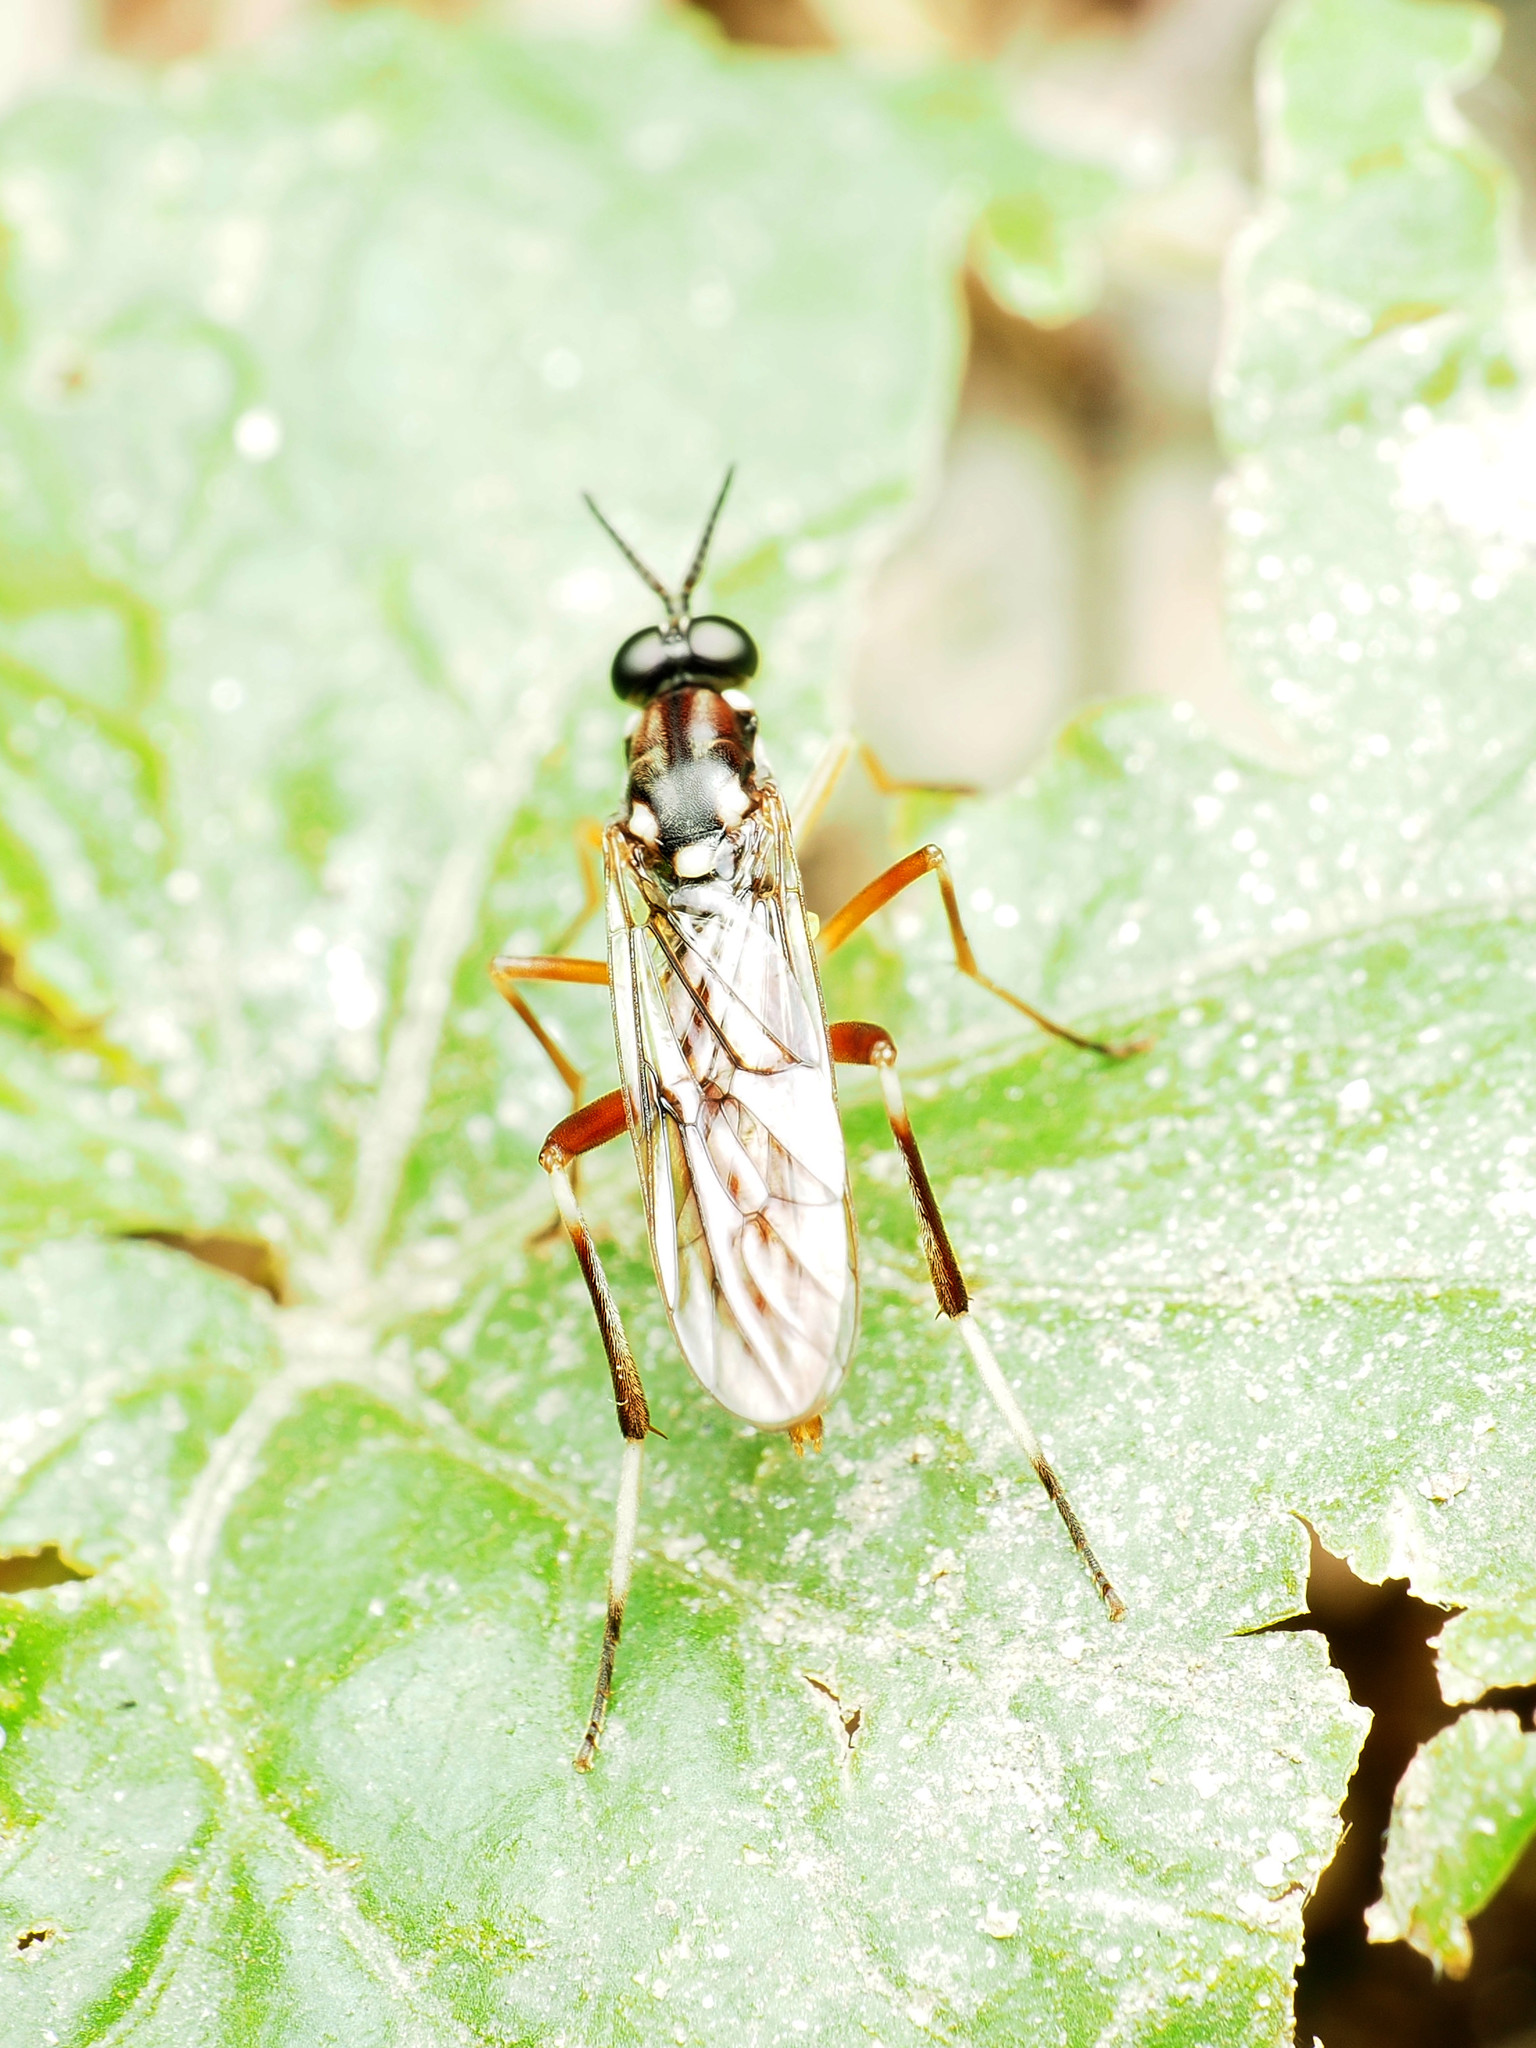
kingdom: Animalia
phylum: Arthropoda
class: Insecta
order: Diptera
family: Xylomyidae
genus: Xylomya
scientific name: Xylomya pallidifemur
